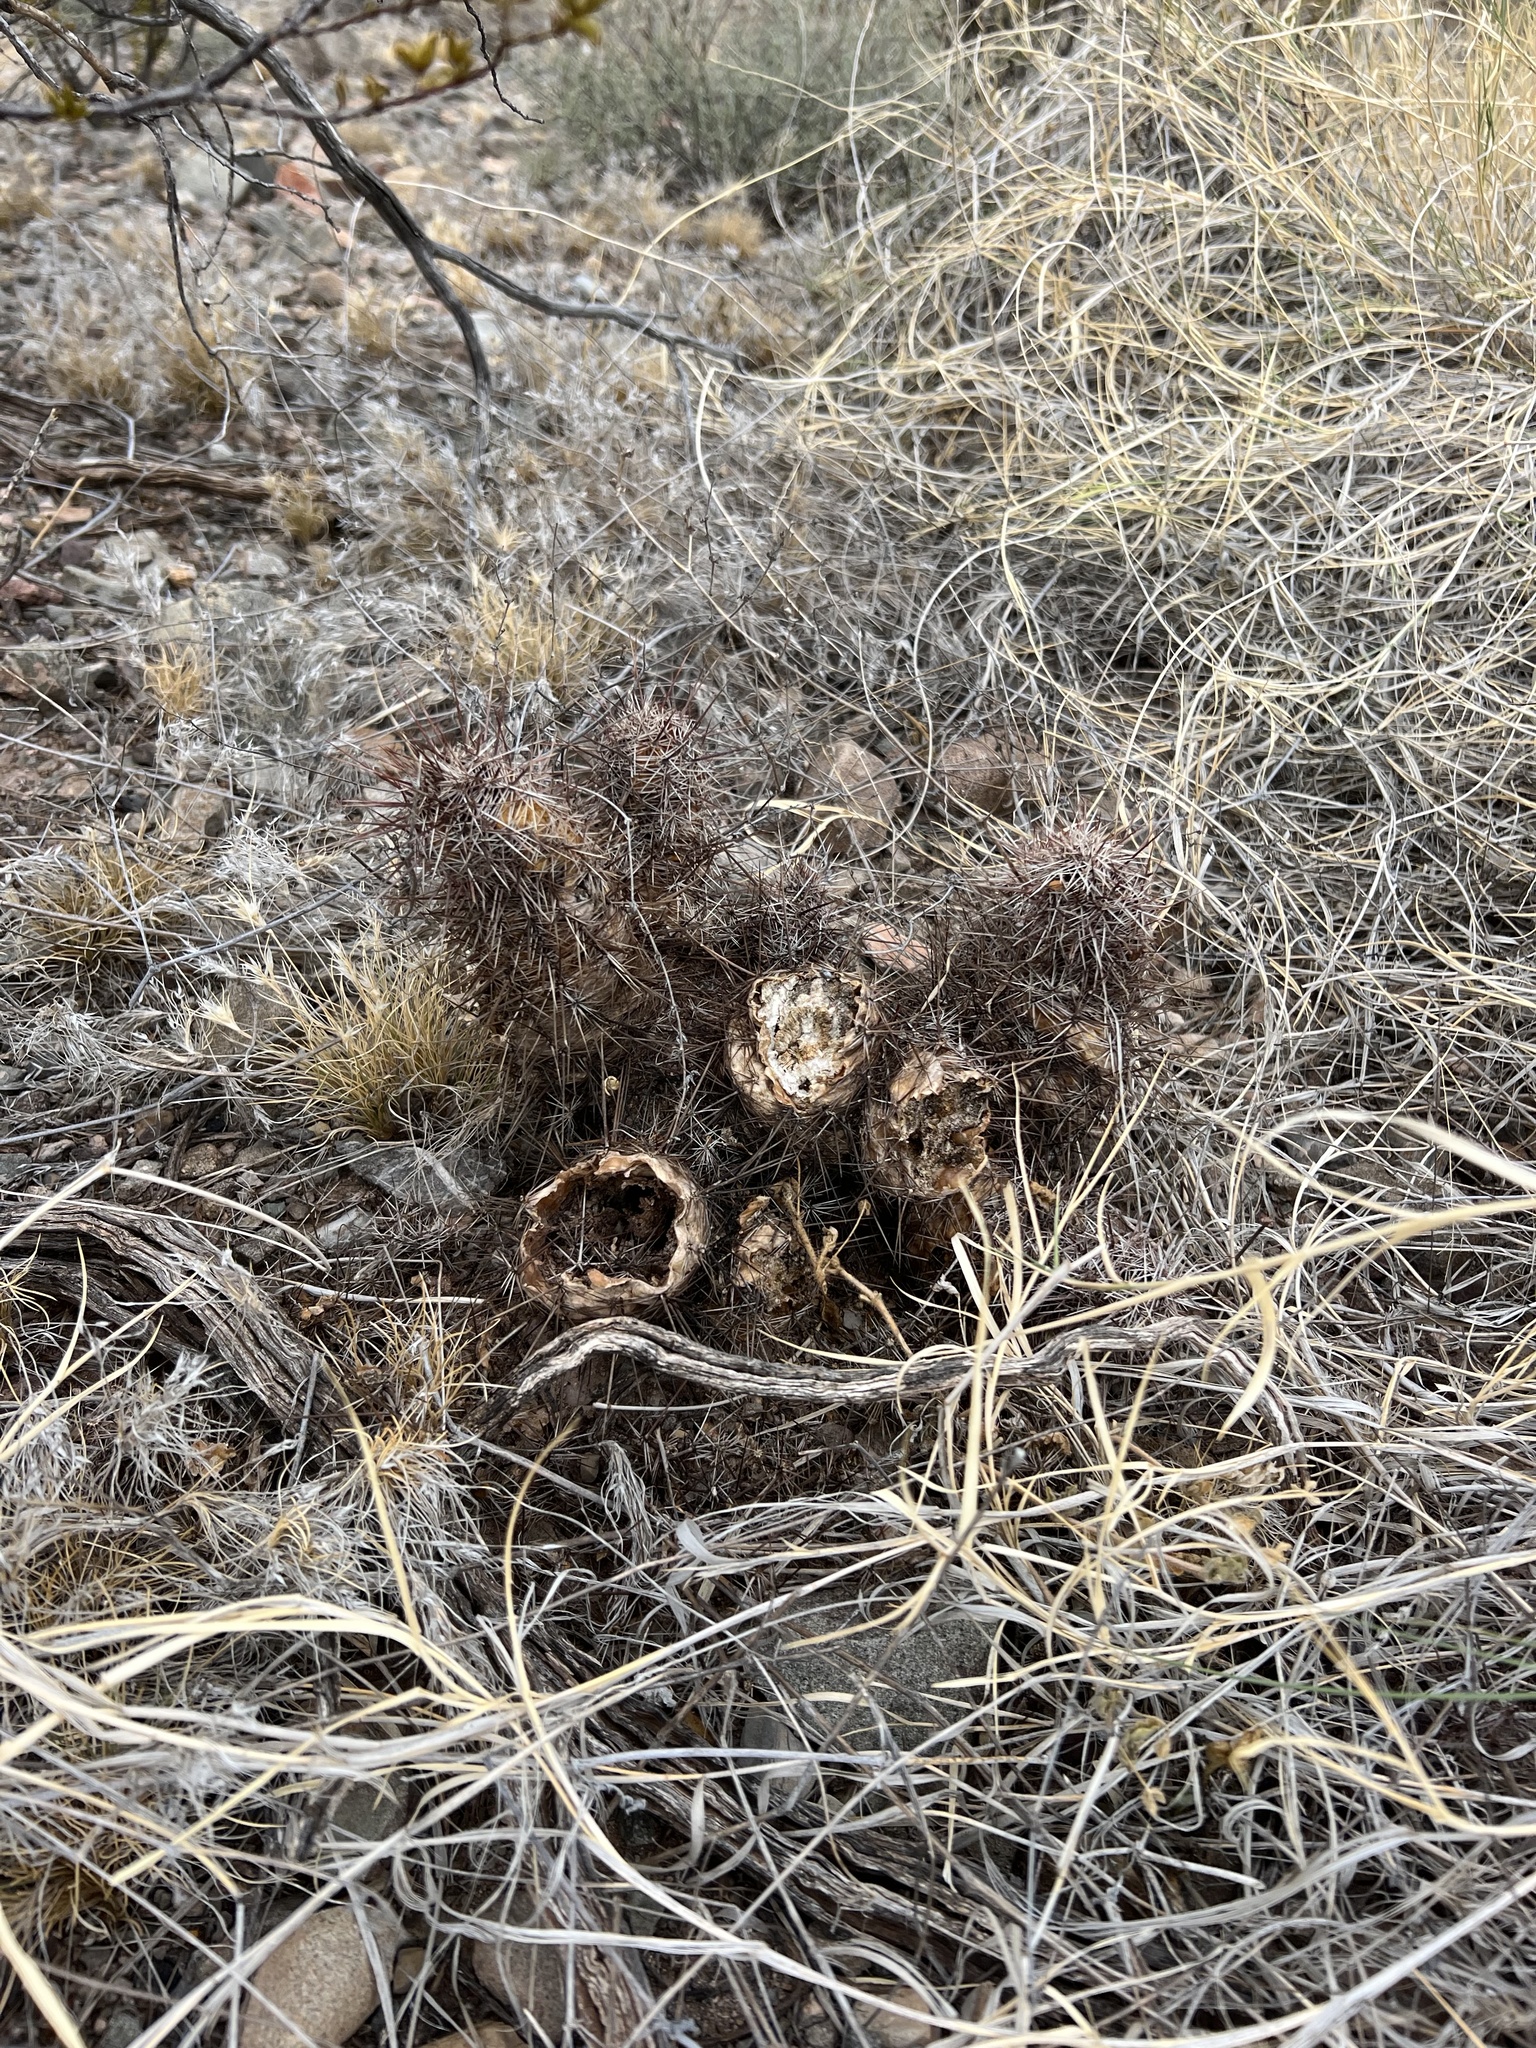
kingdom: Plantae
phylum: Tracheophyta
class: Magnoliopsida
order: Caryophyllales
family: Cactaceae
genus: Echinocereus
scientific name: Echinocereus fasciculatus
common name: Bundle hedgehog
